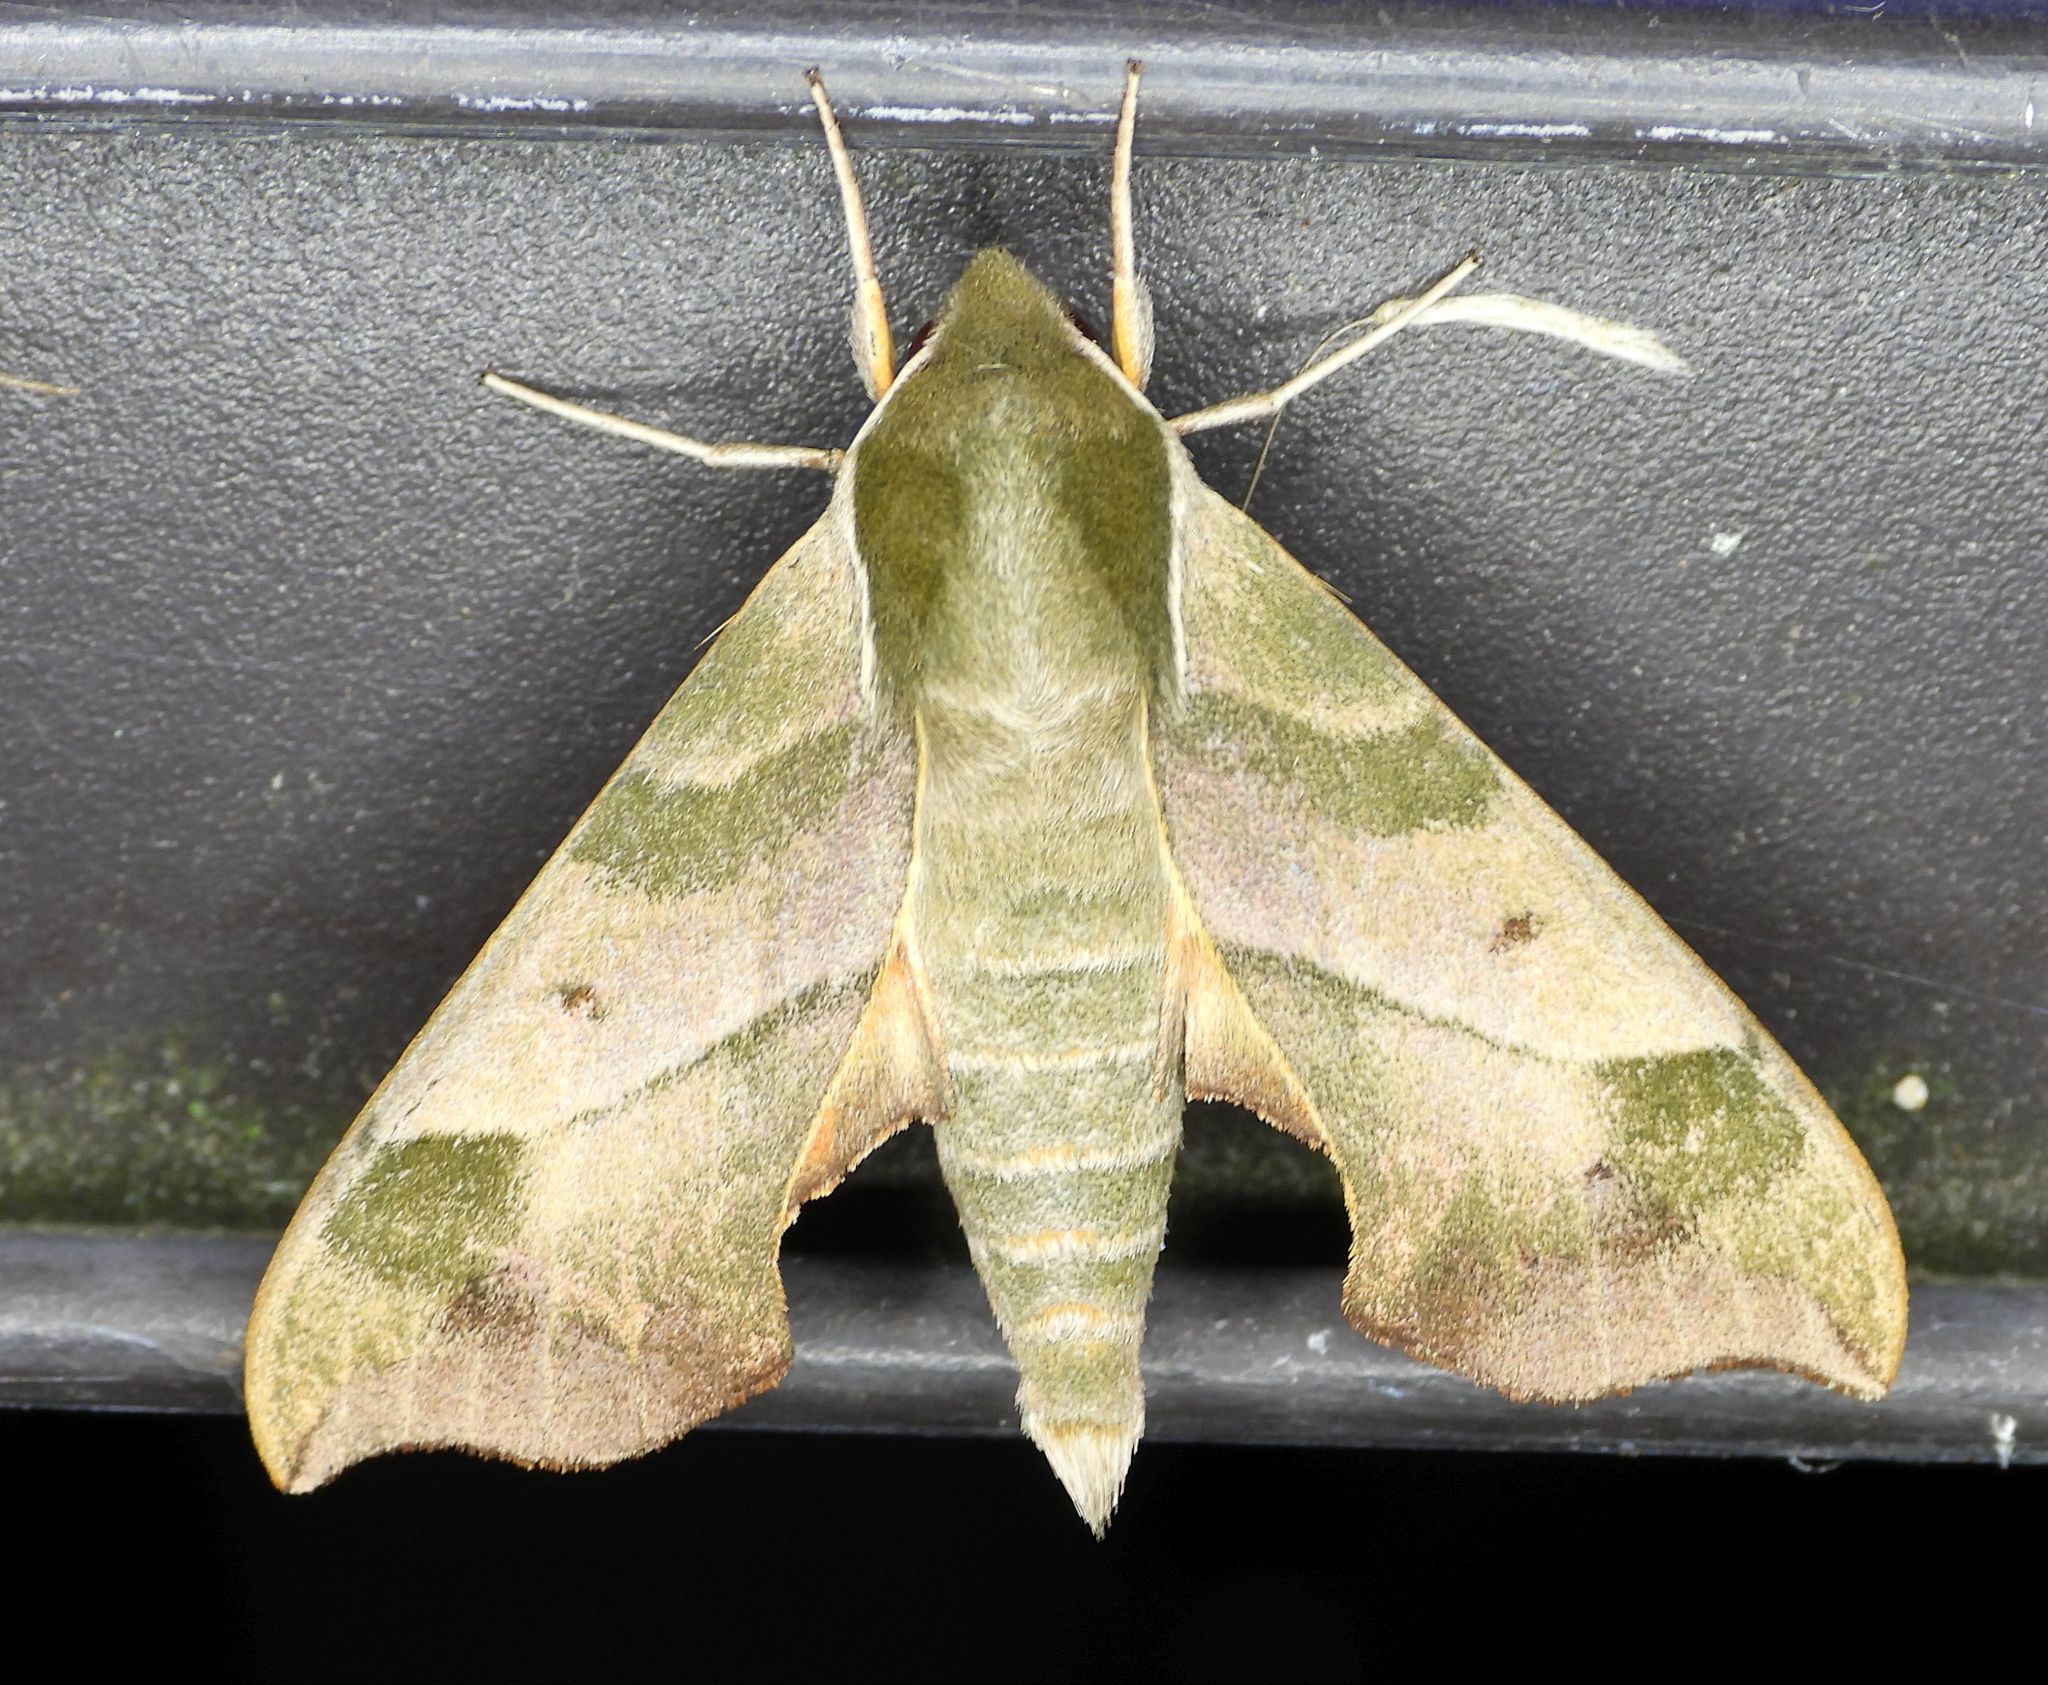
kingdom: Animalia
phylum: Arthropoda
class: Insecta
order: Lepidoptera
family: Sphingidae
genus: Darapsa
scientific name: Darapsa myron
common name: Hog sphinx
